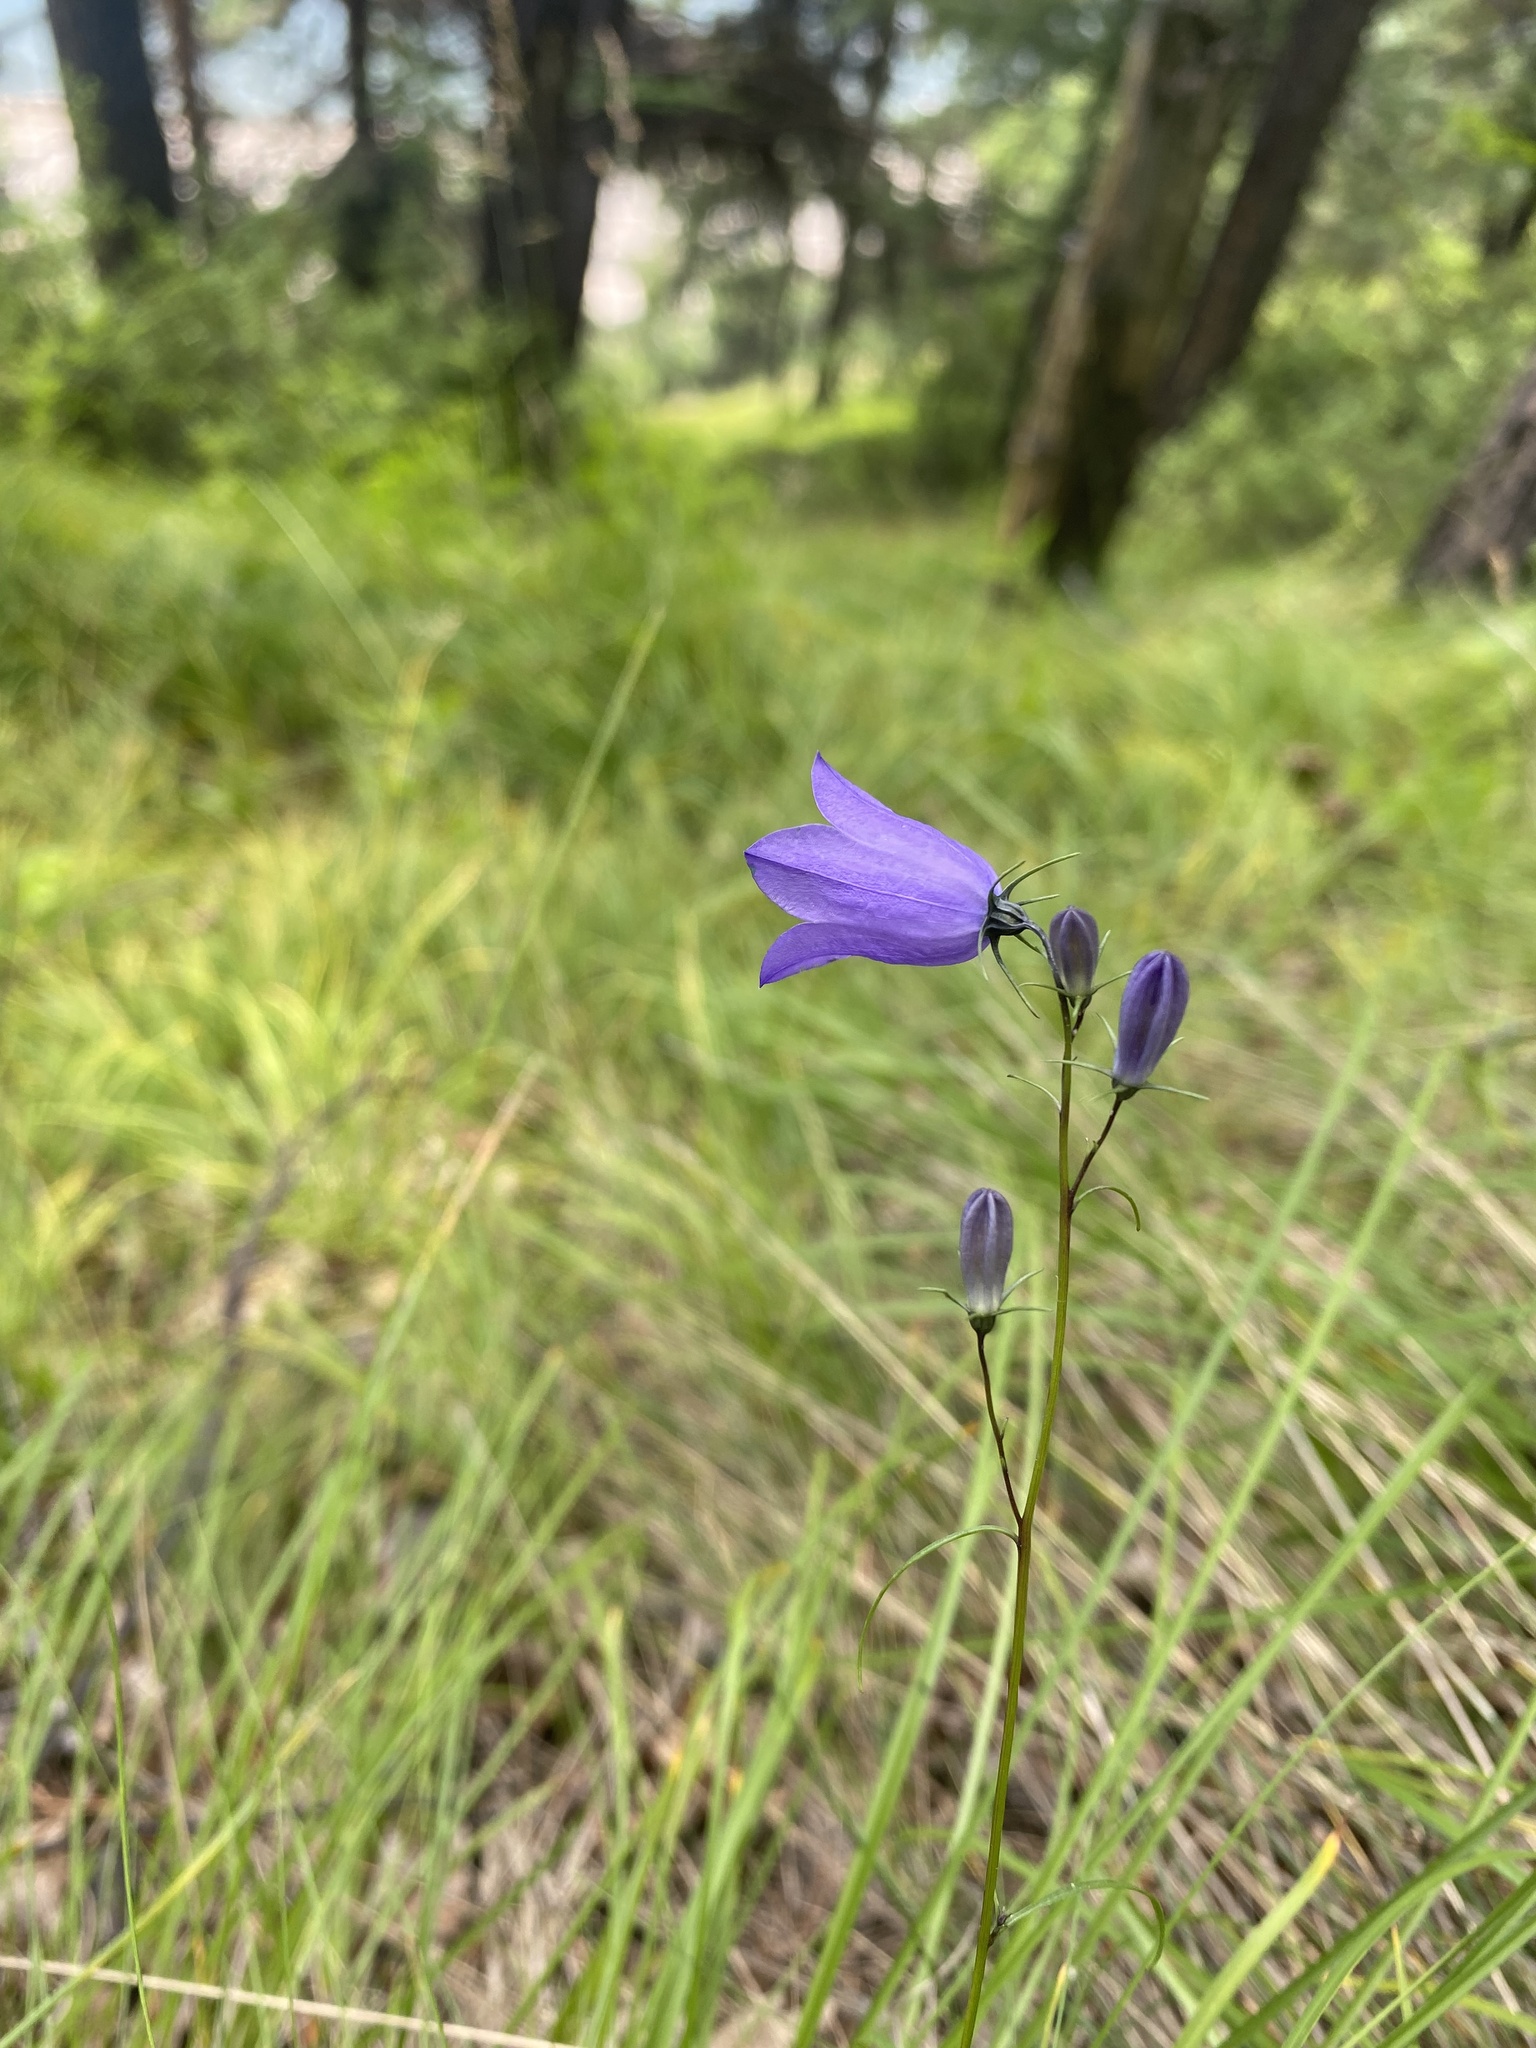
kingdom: Plantae
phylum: Tracheophyta
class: Magnoliopsida
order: Asterales
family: Campanulaceae
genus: Campanula
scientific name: Campanula rotundifolia
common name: Harebell
